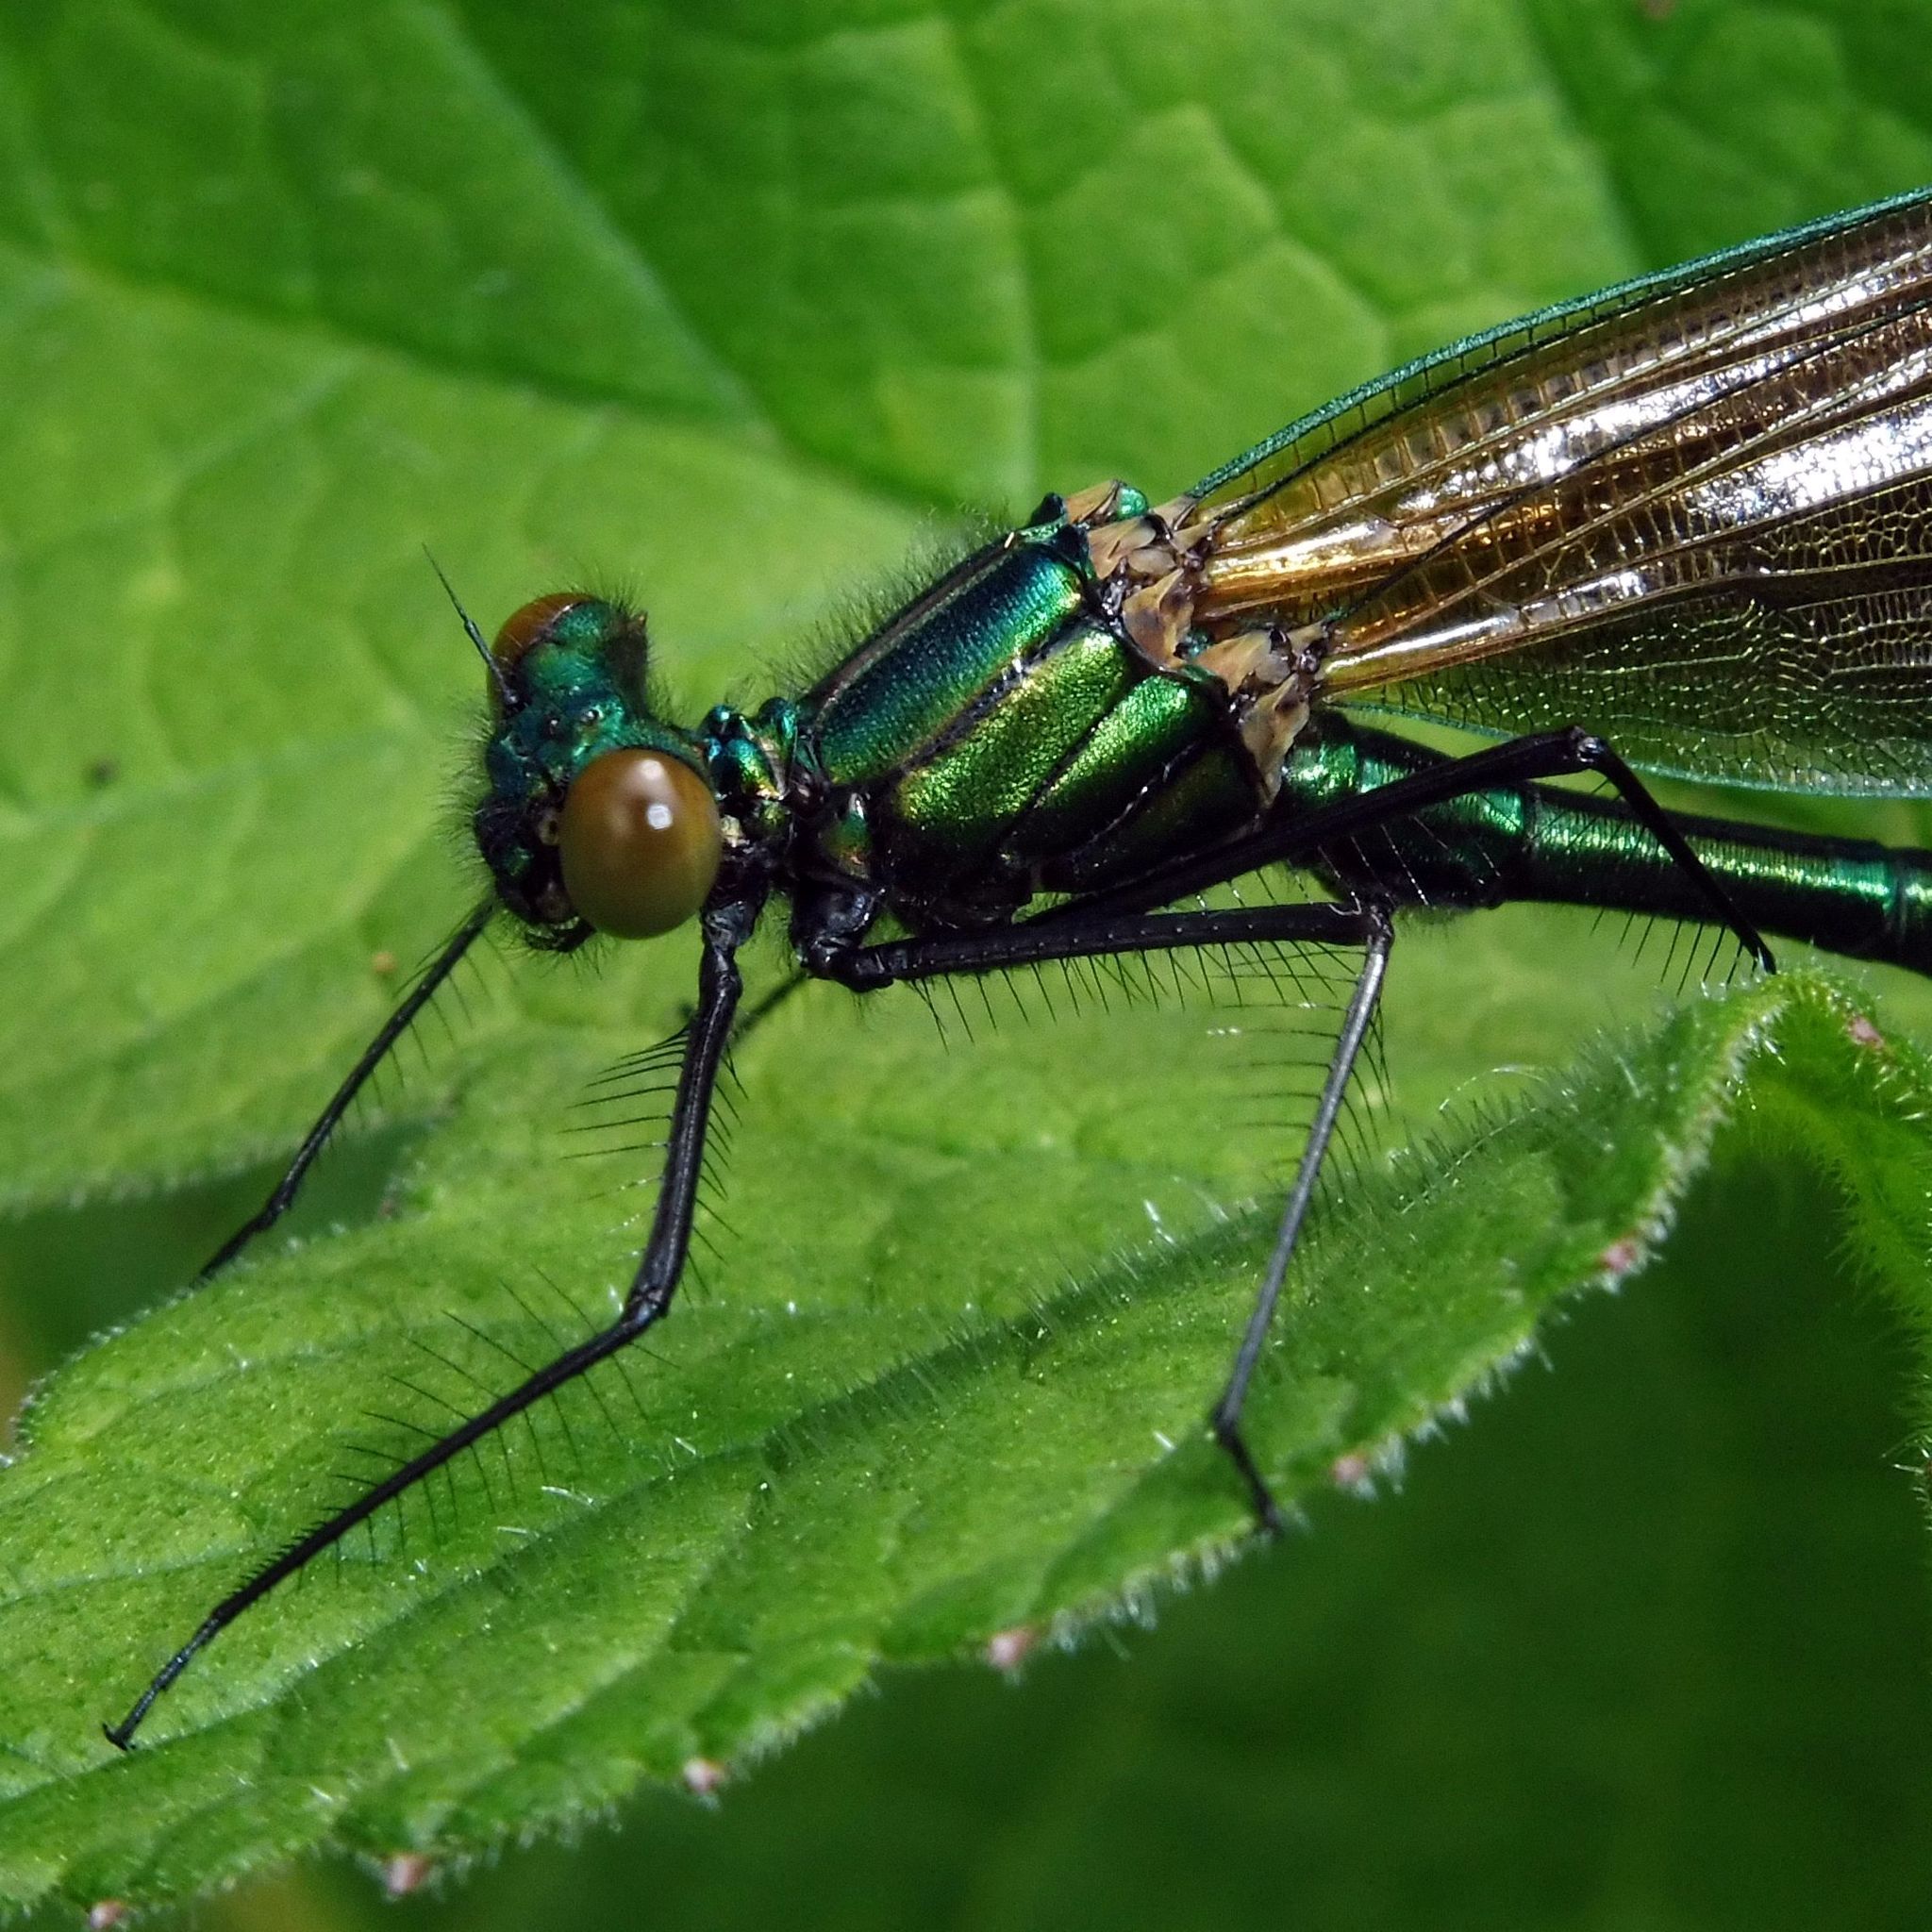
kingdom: Animalia
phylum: Arthropoda
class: Insecta
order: Odonata
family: Calopterygidae
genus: Calopteryx
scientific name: Calopteryx virgo
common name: Beautiful demoiselle
